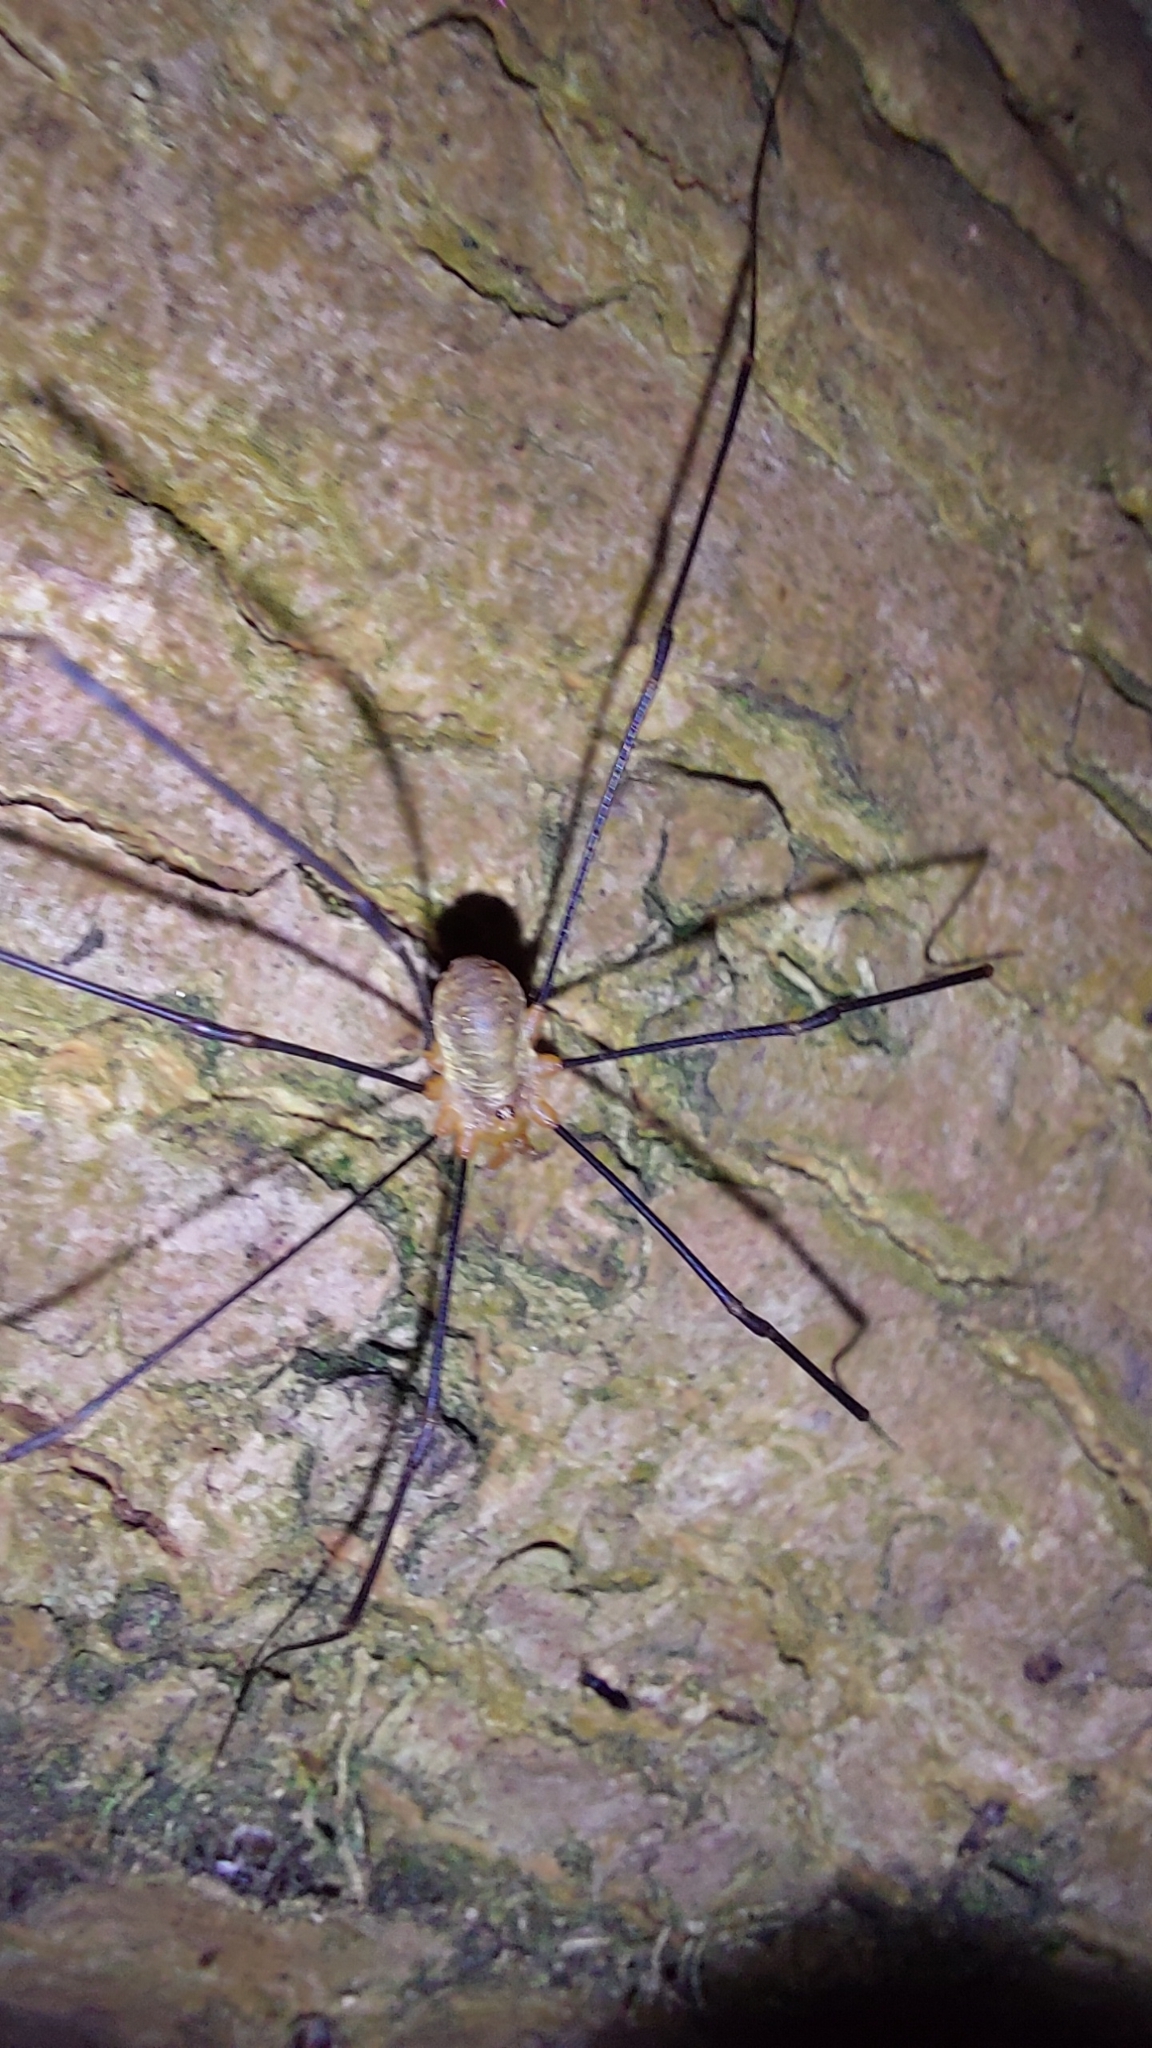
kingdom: Animalia
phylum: Arthropoda
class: Arachnida
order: Opiliones
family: Phalangiidae
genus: Opilio
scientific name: Opilio canestrinii
